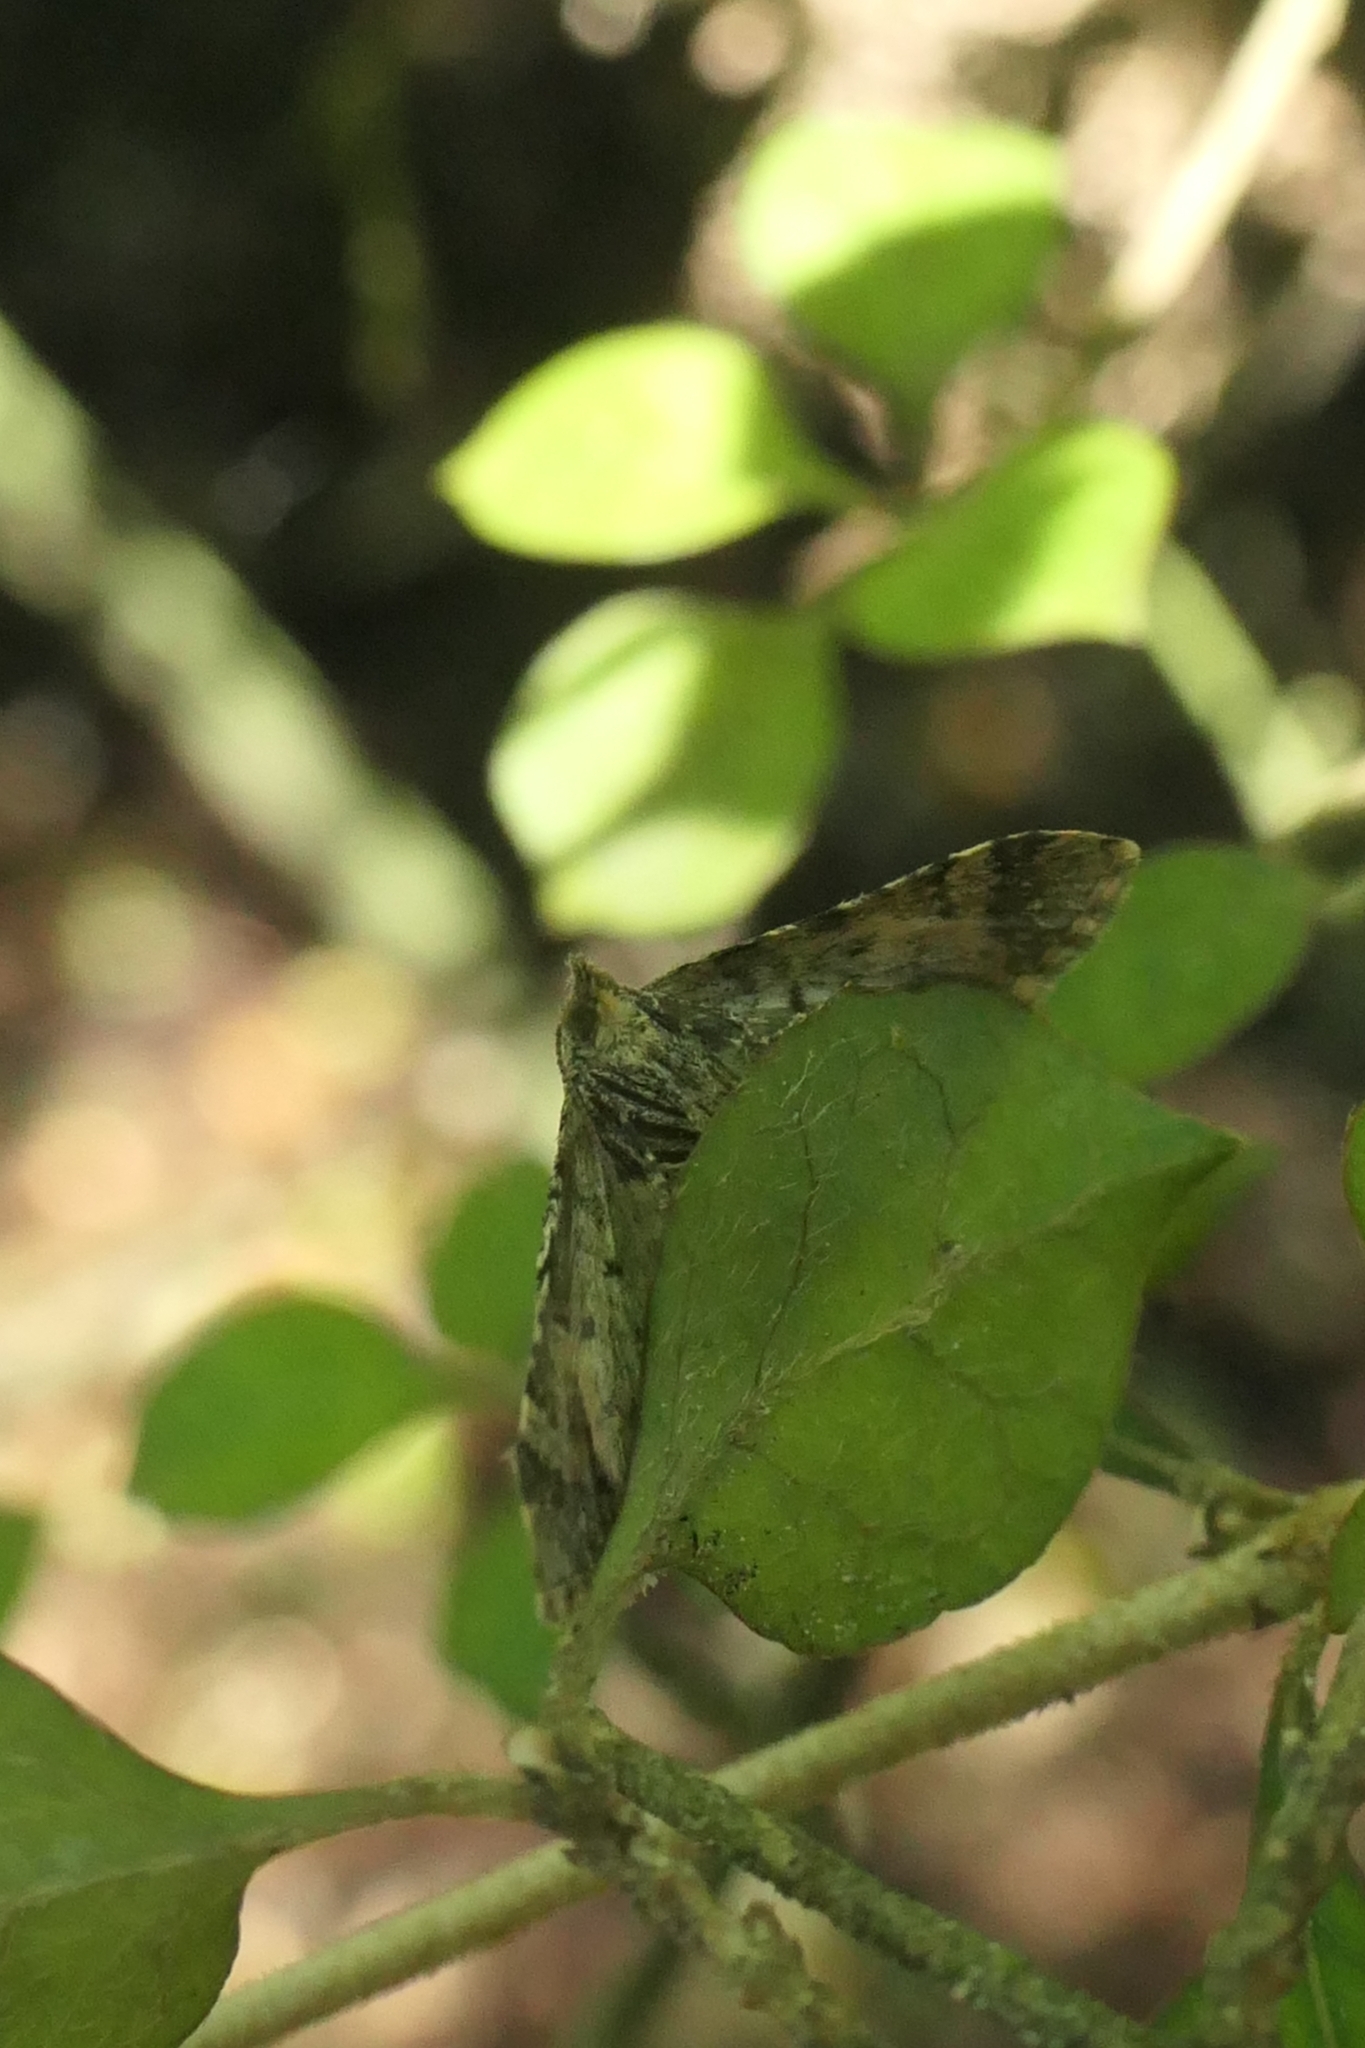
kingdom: Animalia
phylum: Arthropoda
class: Insecta
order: Lepidoptera
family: Geometridae
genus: Pasiphila
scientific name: Pasiphila sandycias
